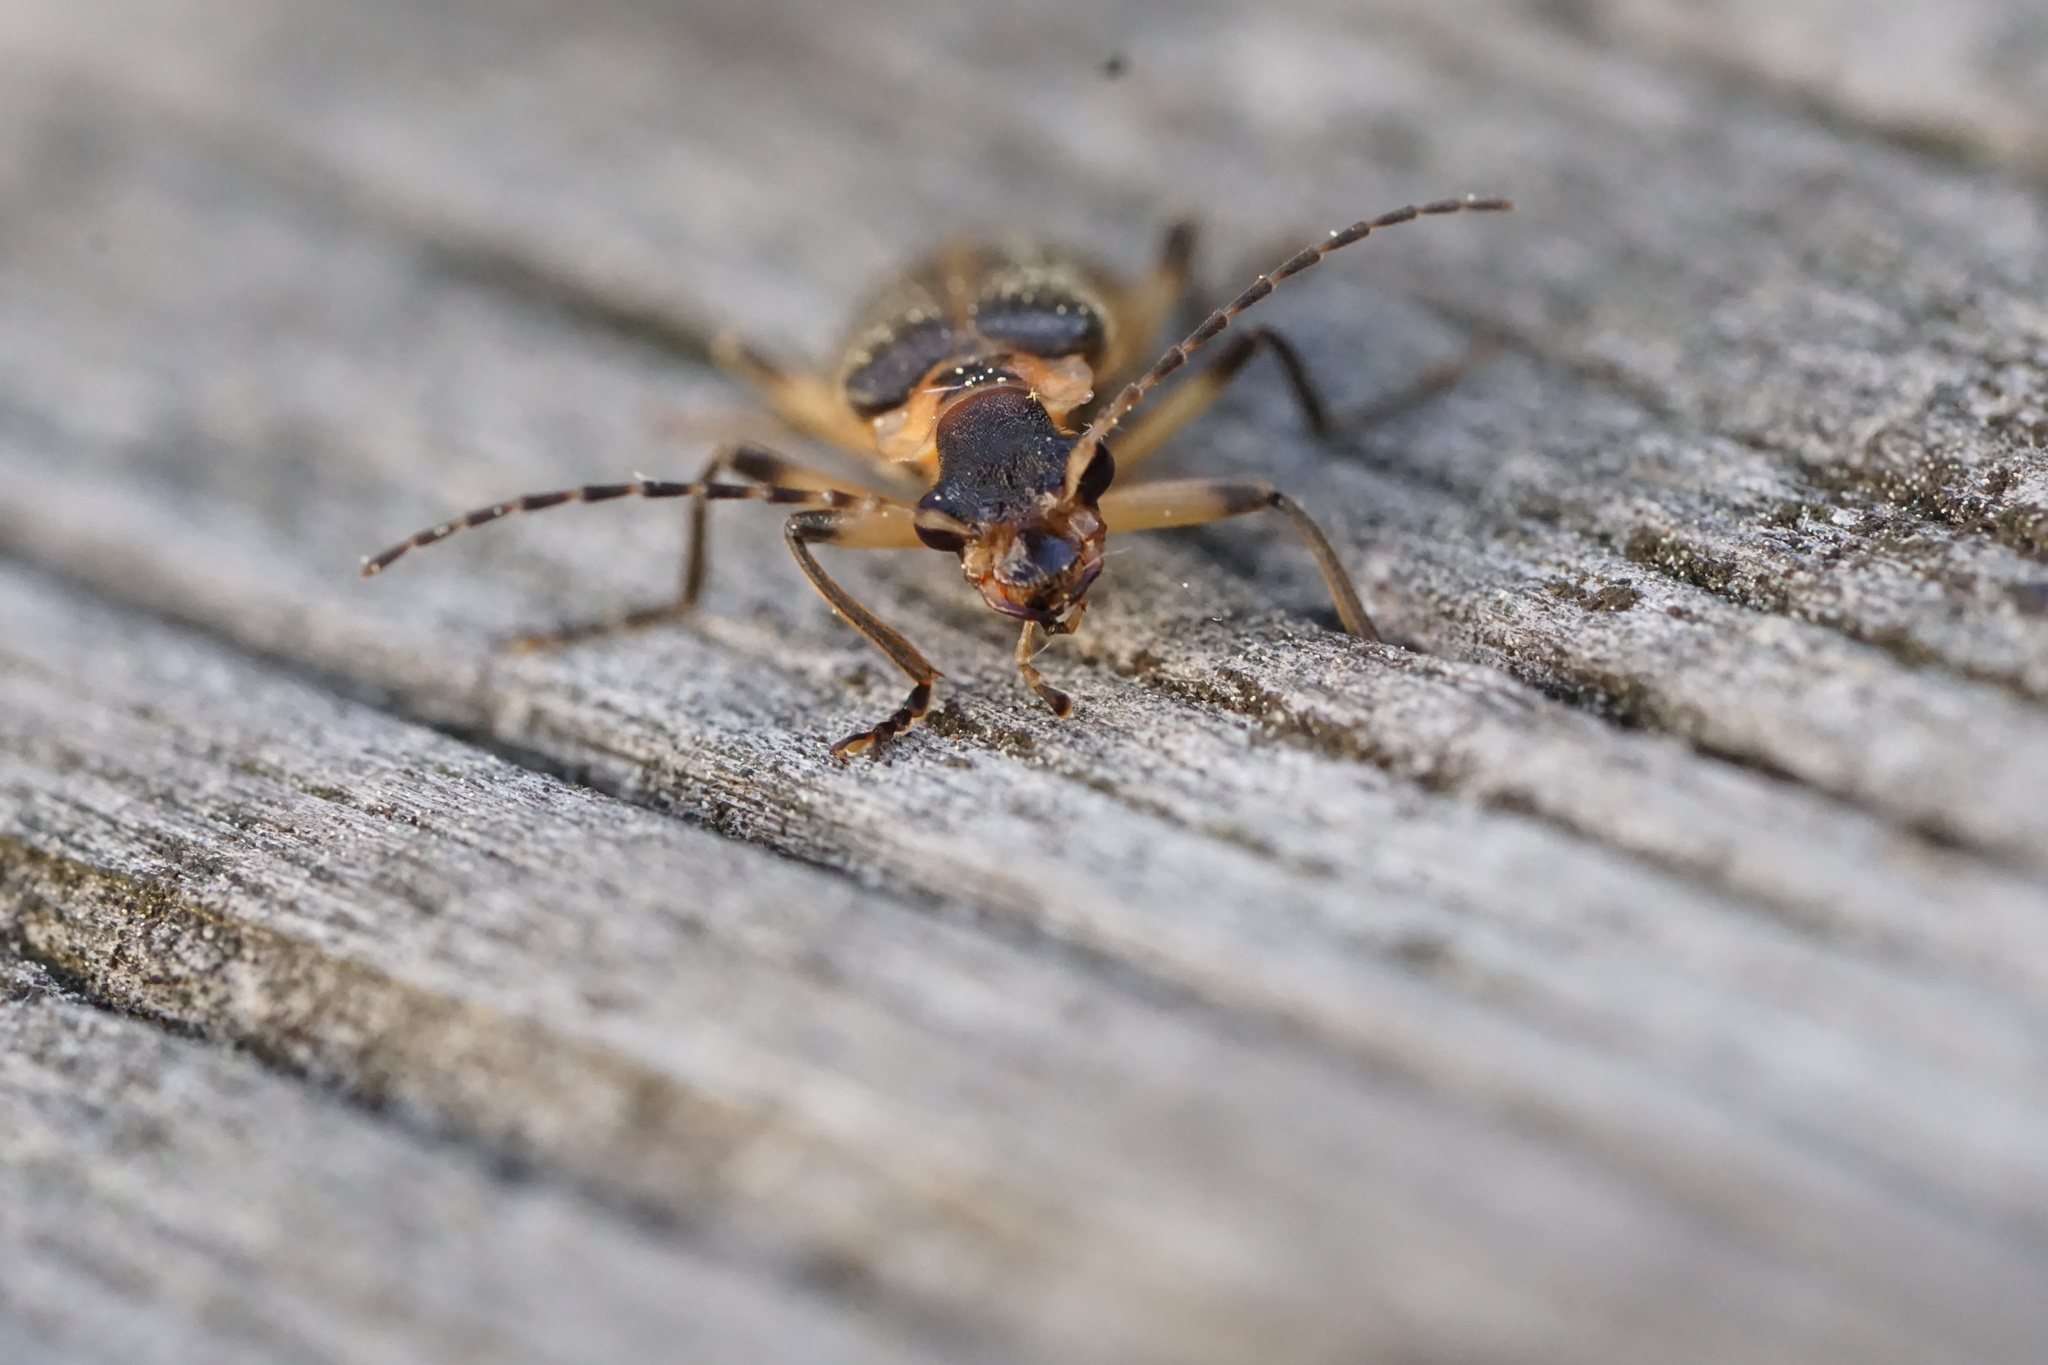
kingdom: Animalia
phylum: Arthropoda
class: Insecta
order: Coleoptera
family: Cantharidae
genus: Podabrus
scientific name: Podabrus basilaris
